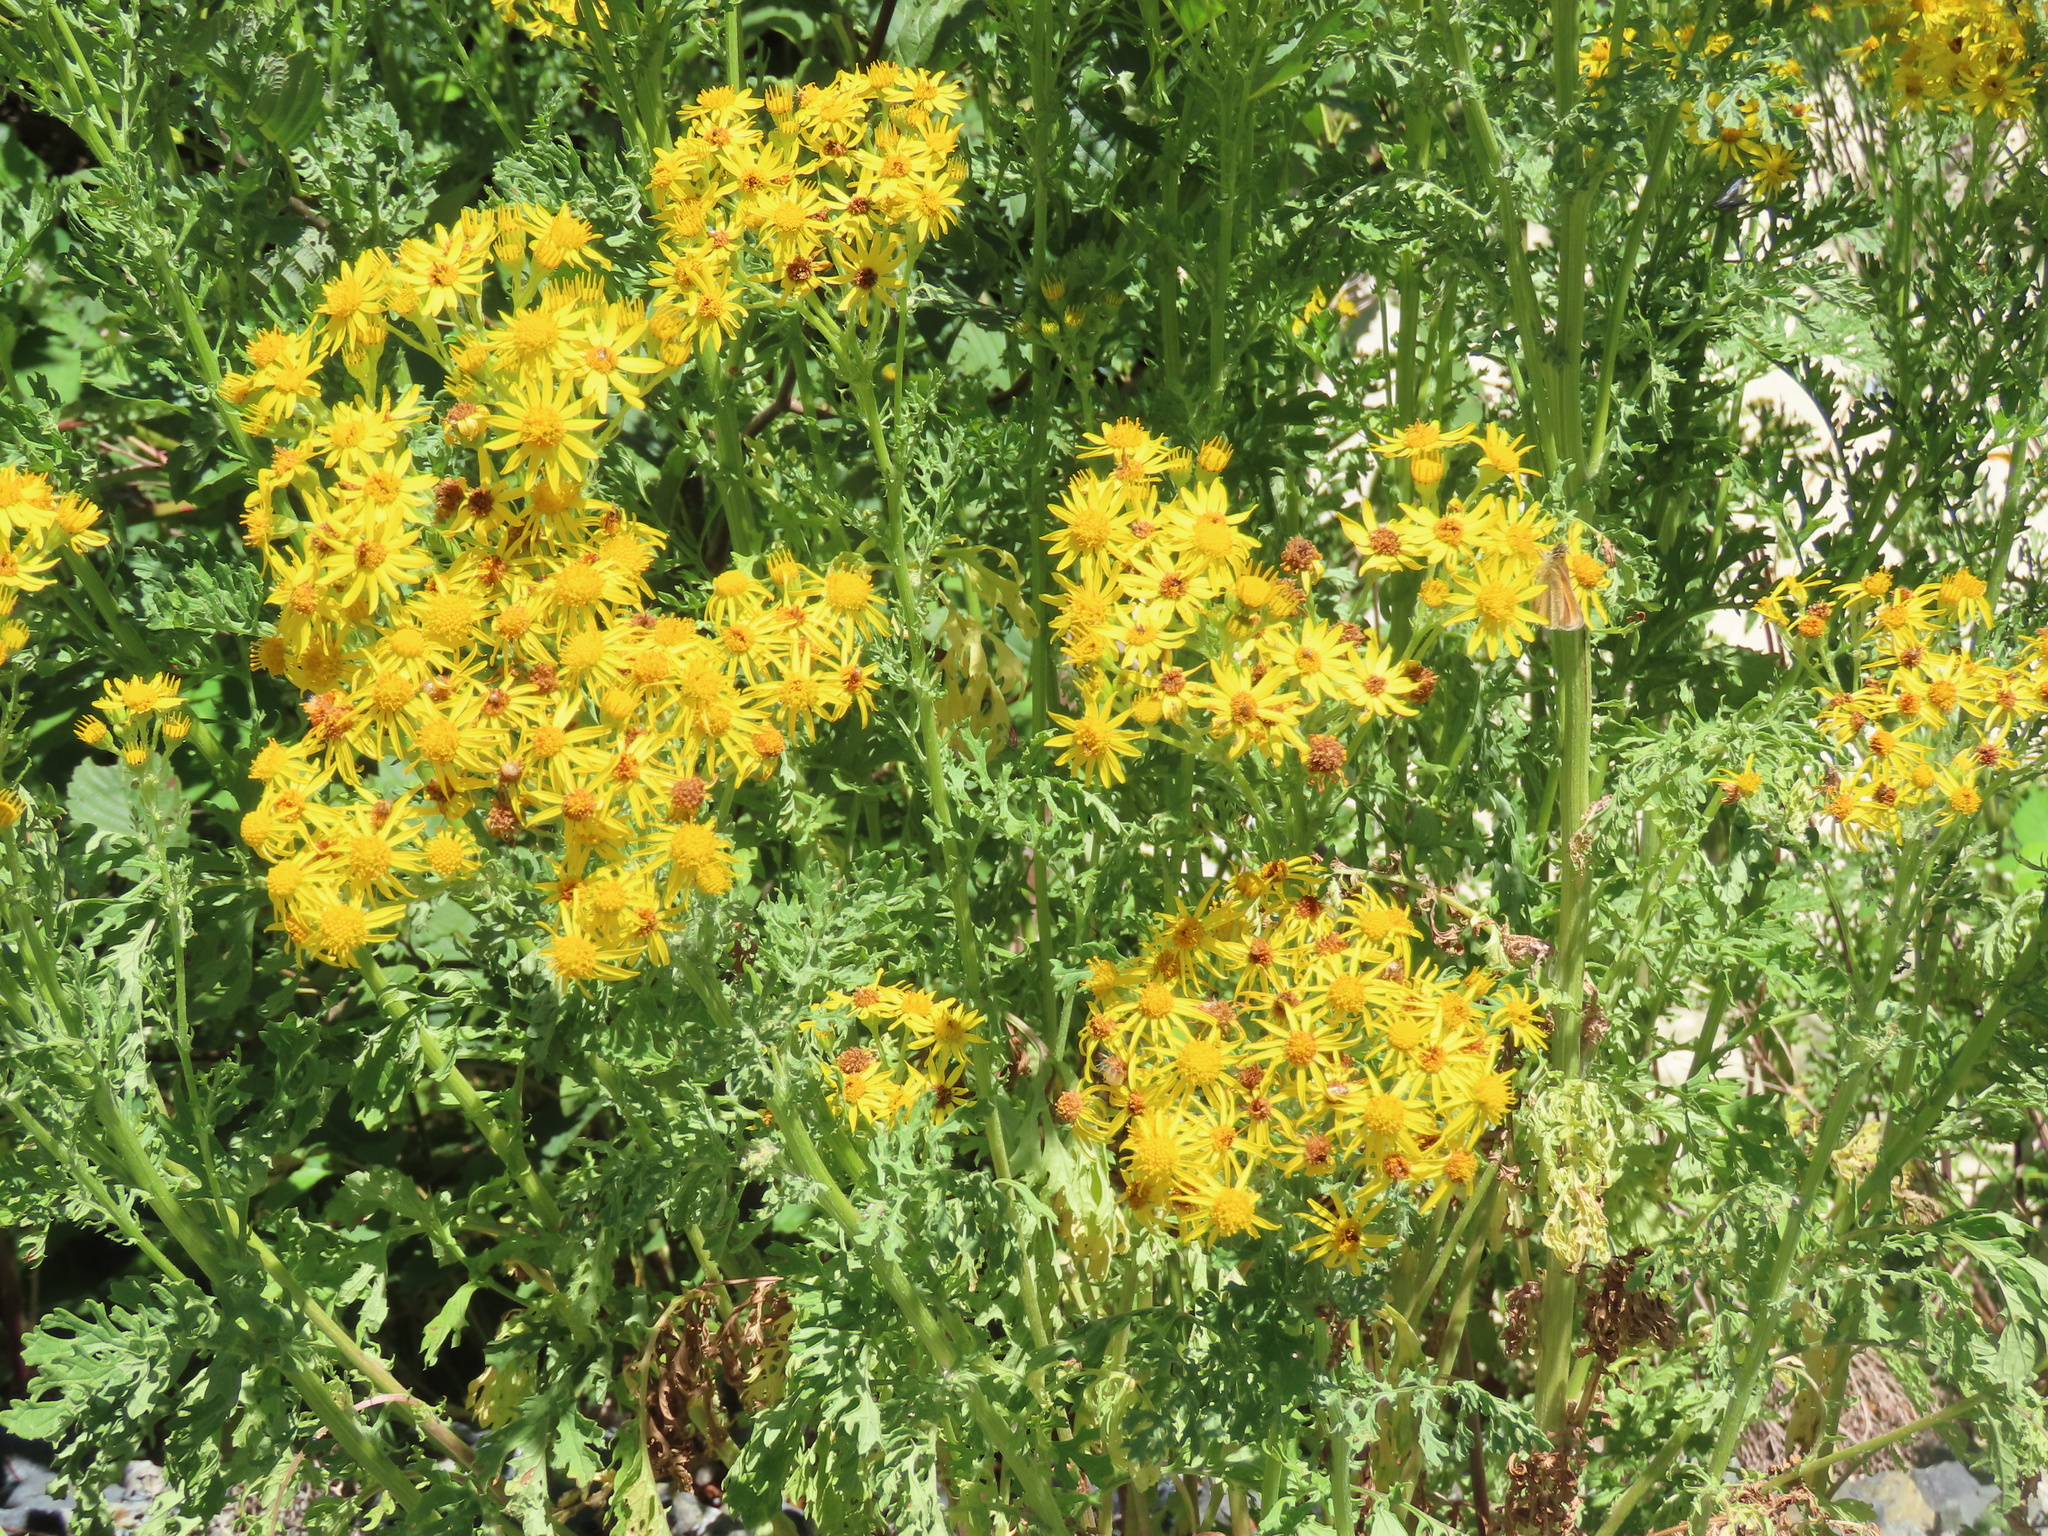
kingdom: Plantae
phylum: Tracheophyta
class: Magnoliopsida
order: Asterales
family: Asteraceae
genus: Jacobaea
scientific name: Jacobaea vulgaris
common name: Stinking willie
